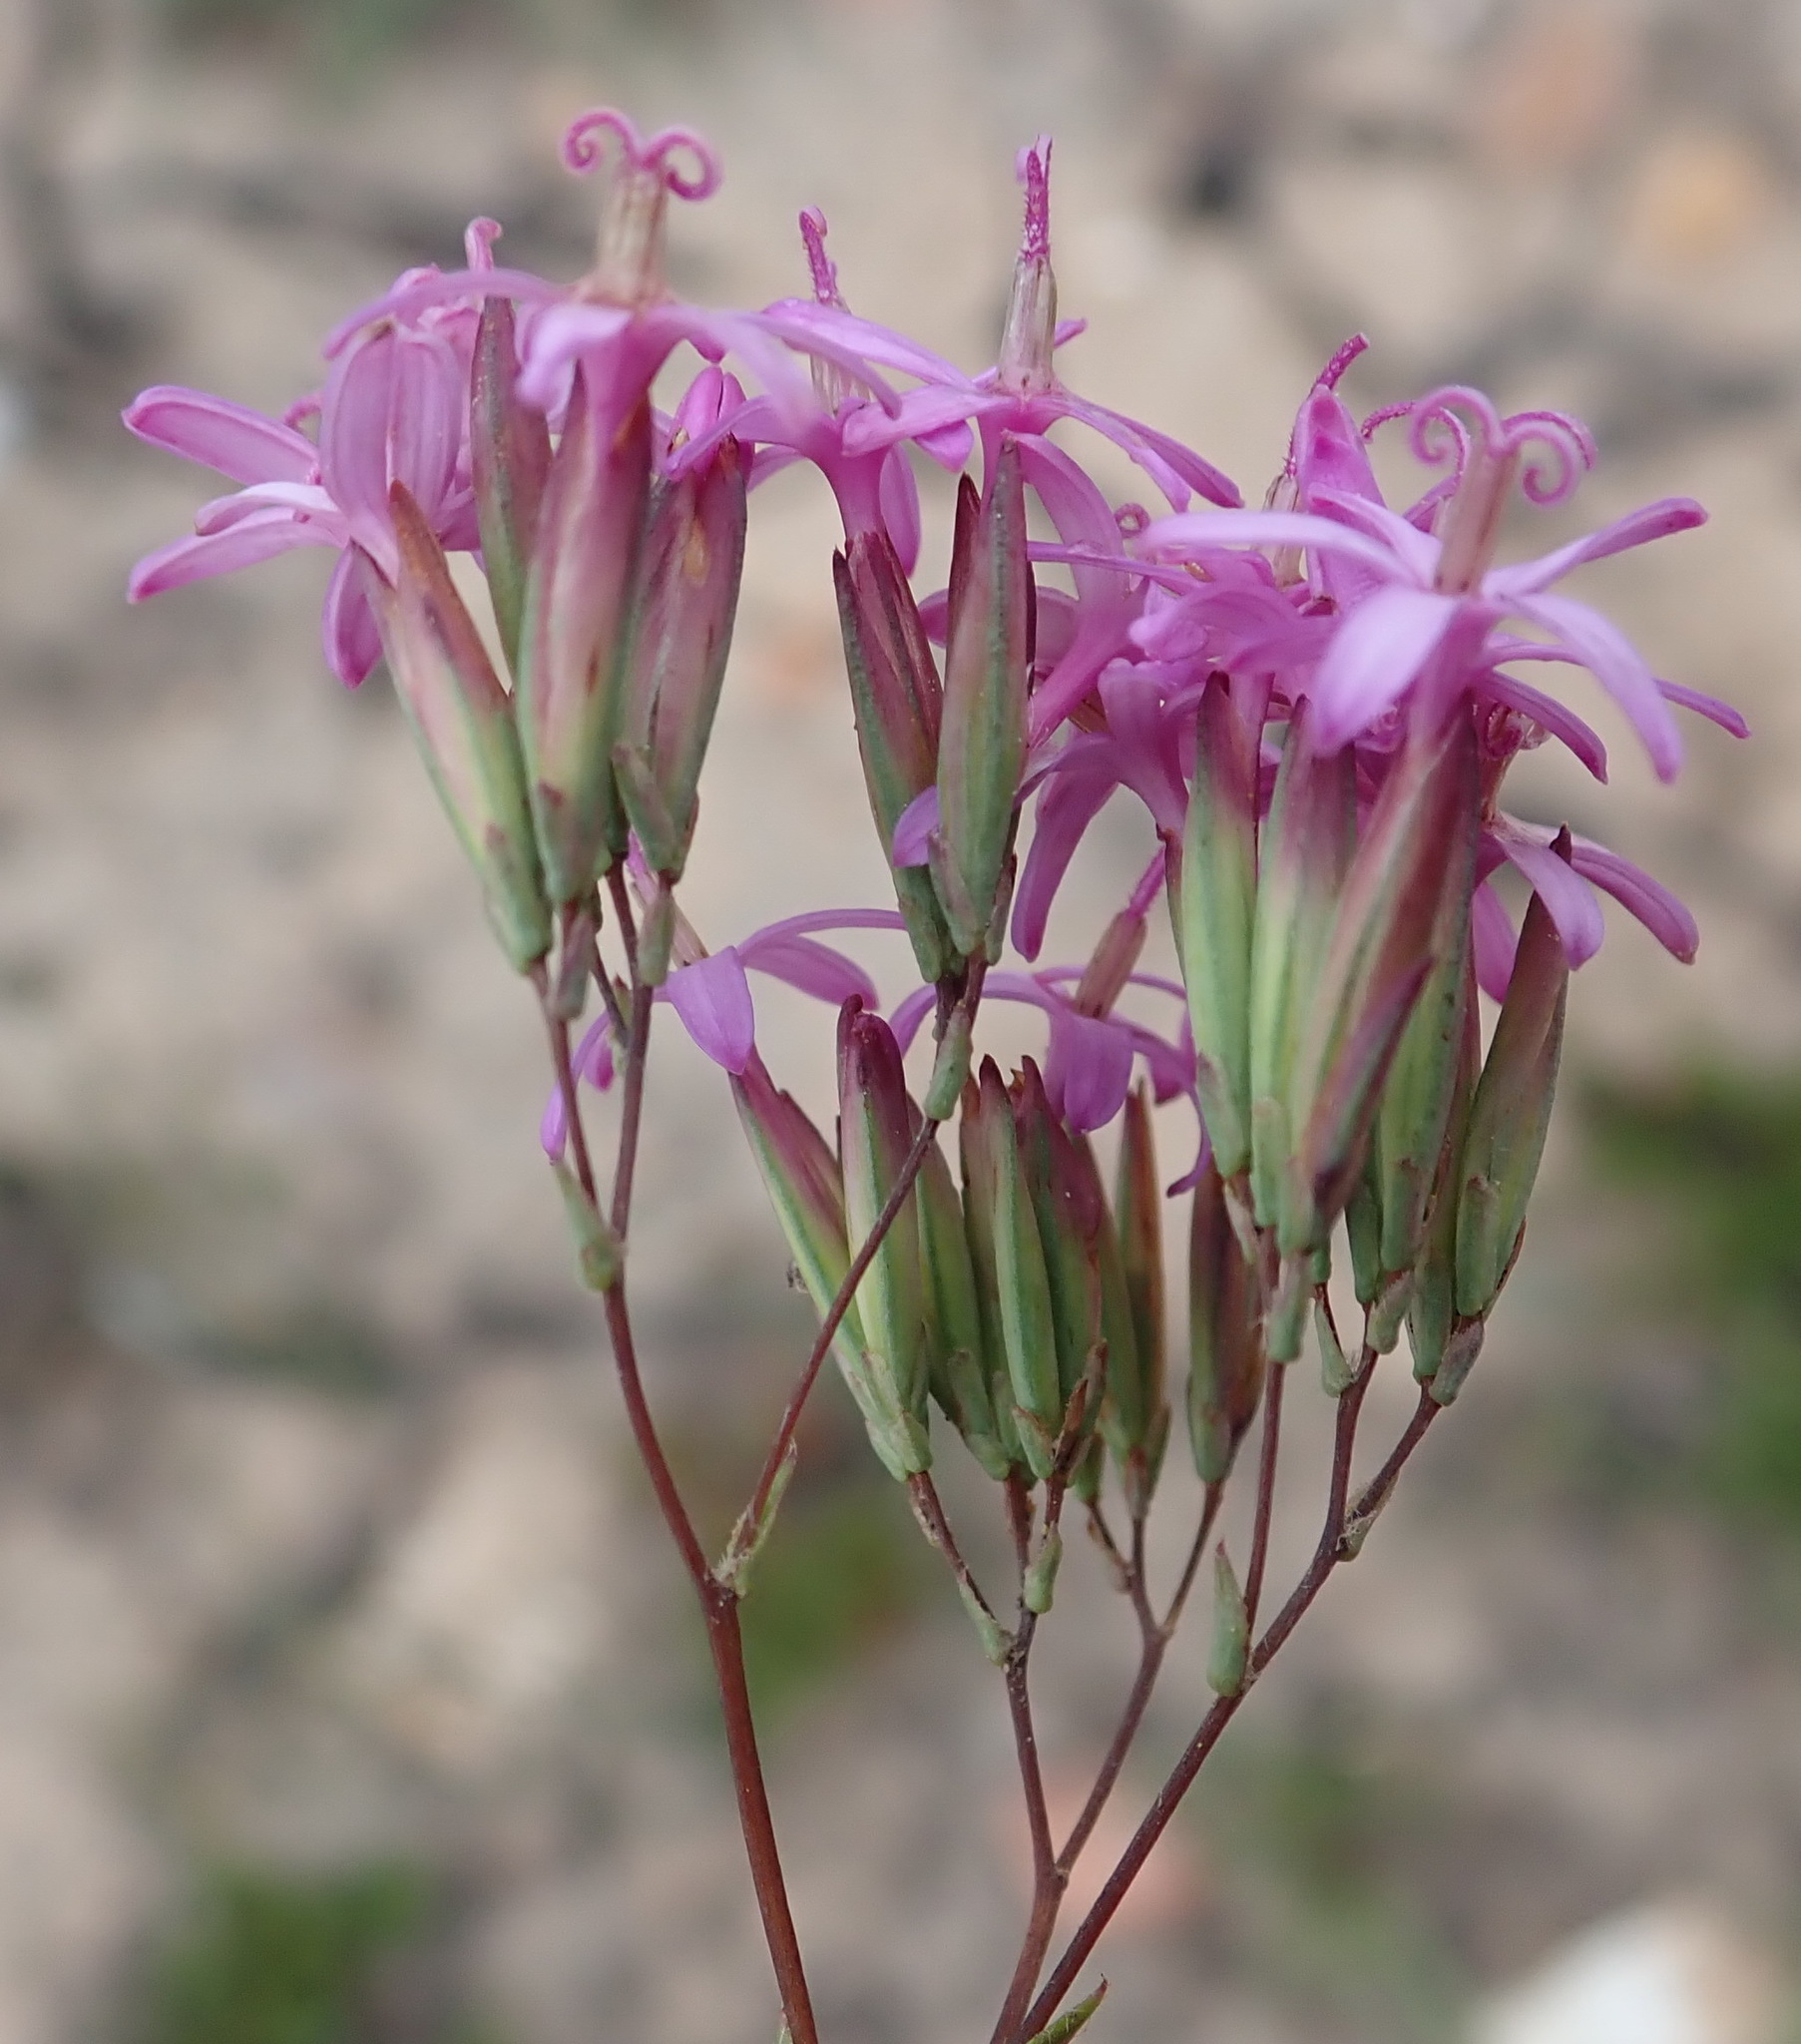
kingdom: Plantae
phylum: Tracheophyta
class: Magnoliopsida
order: Asterales
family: Asteraceae
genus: Corymbium
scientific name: Corymbium glabrum
